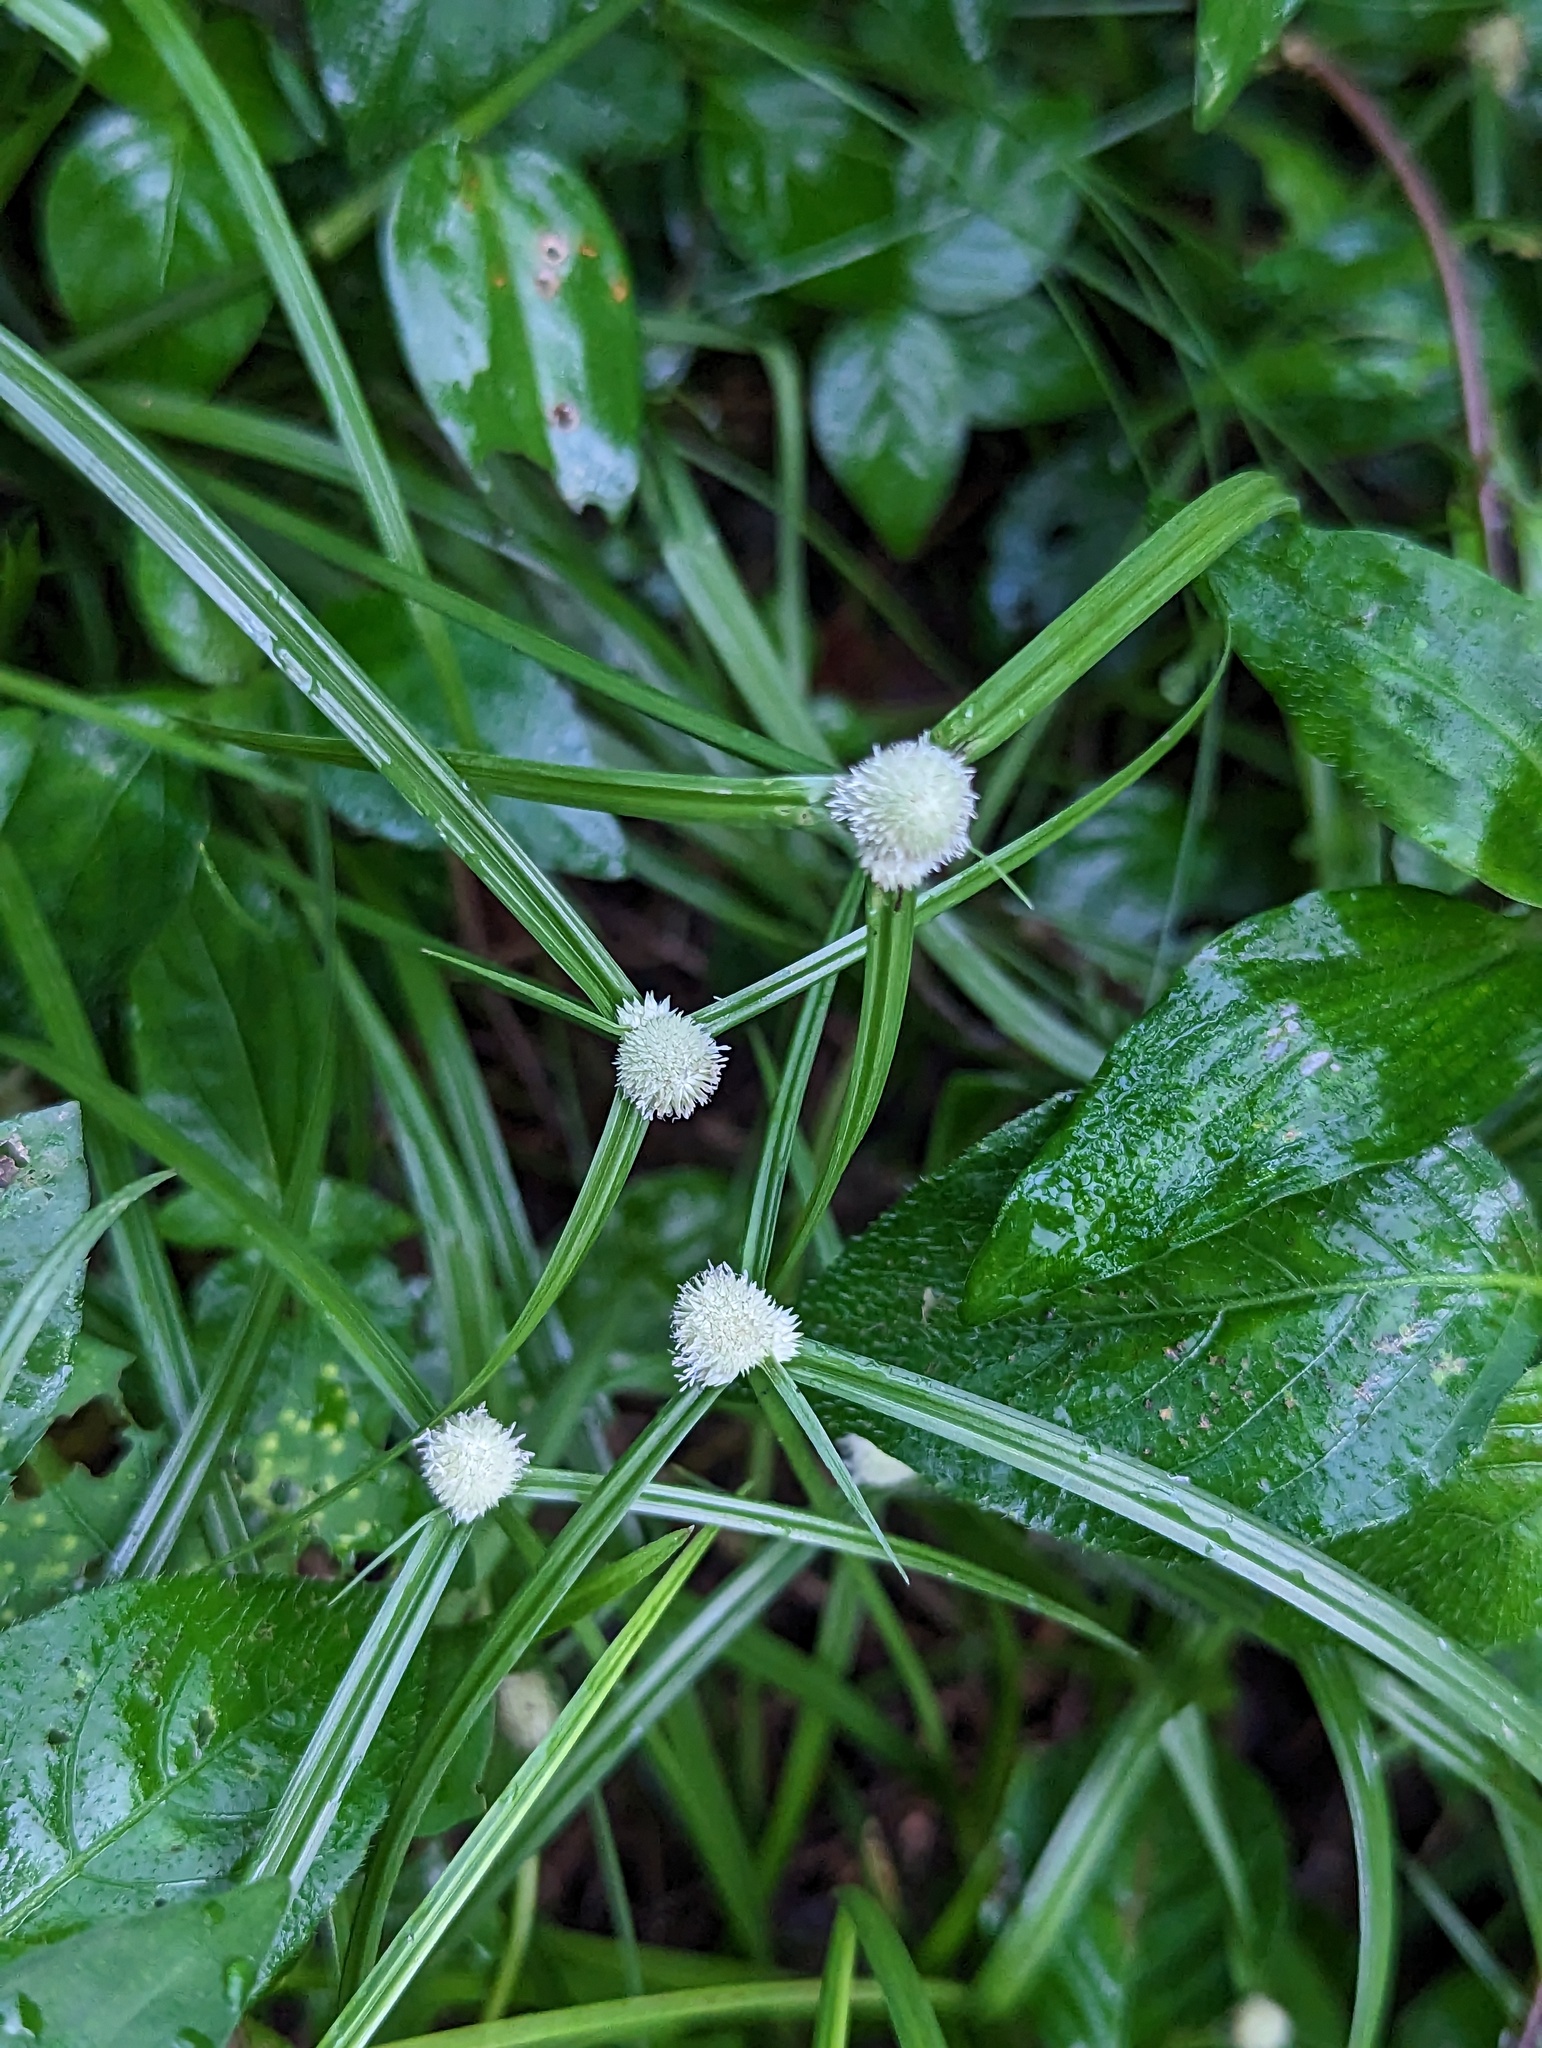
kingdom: Plantae
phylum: Tracheophyta
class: Liliopsida
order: Poales
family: Cyperaceae
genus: Cyperus
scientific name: Cyperus mindorensis
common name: Flatsedge
